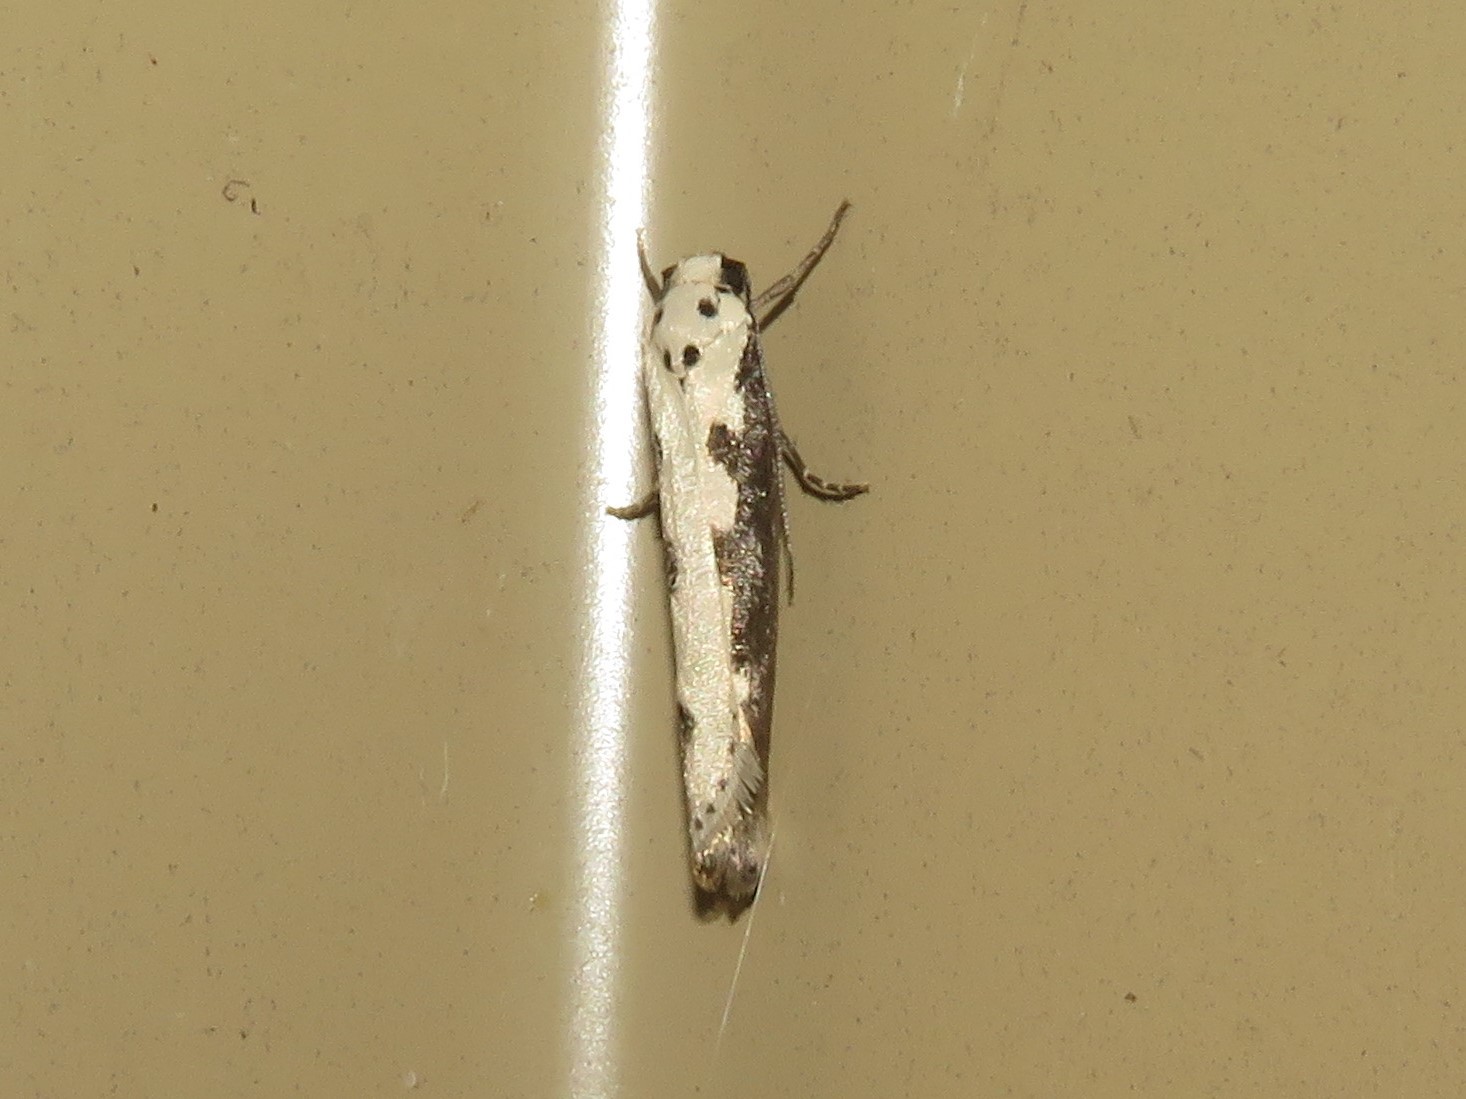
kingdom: Animalia
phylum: Arthropoda
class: Insecta
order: Lepidoptera
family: Ethmiidae
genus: Ethmia
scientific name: Ethmia bipunctella
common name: Bordered ermel
